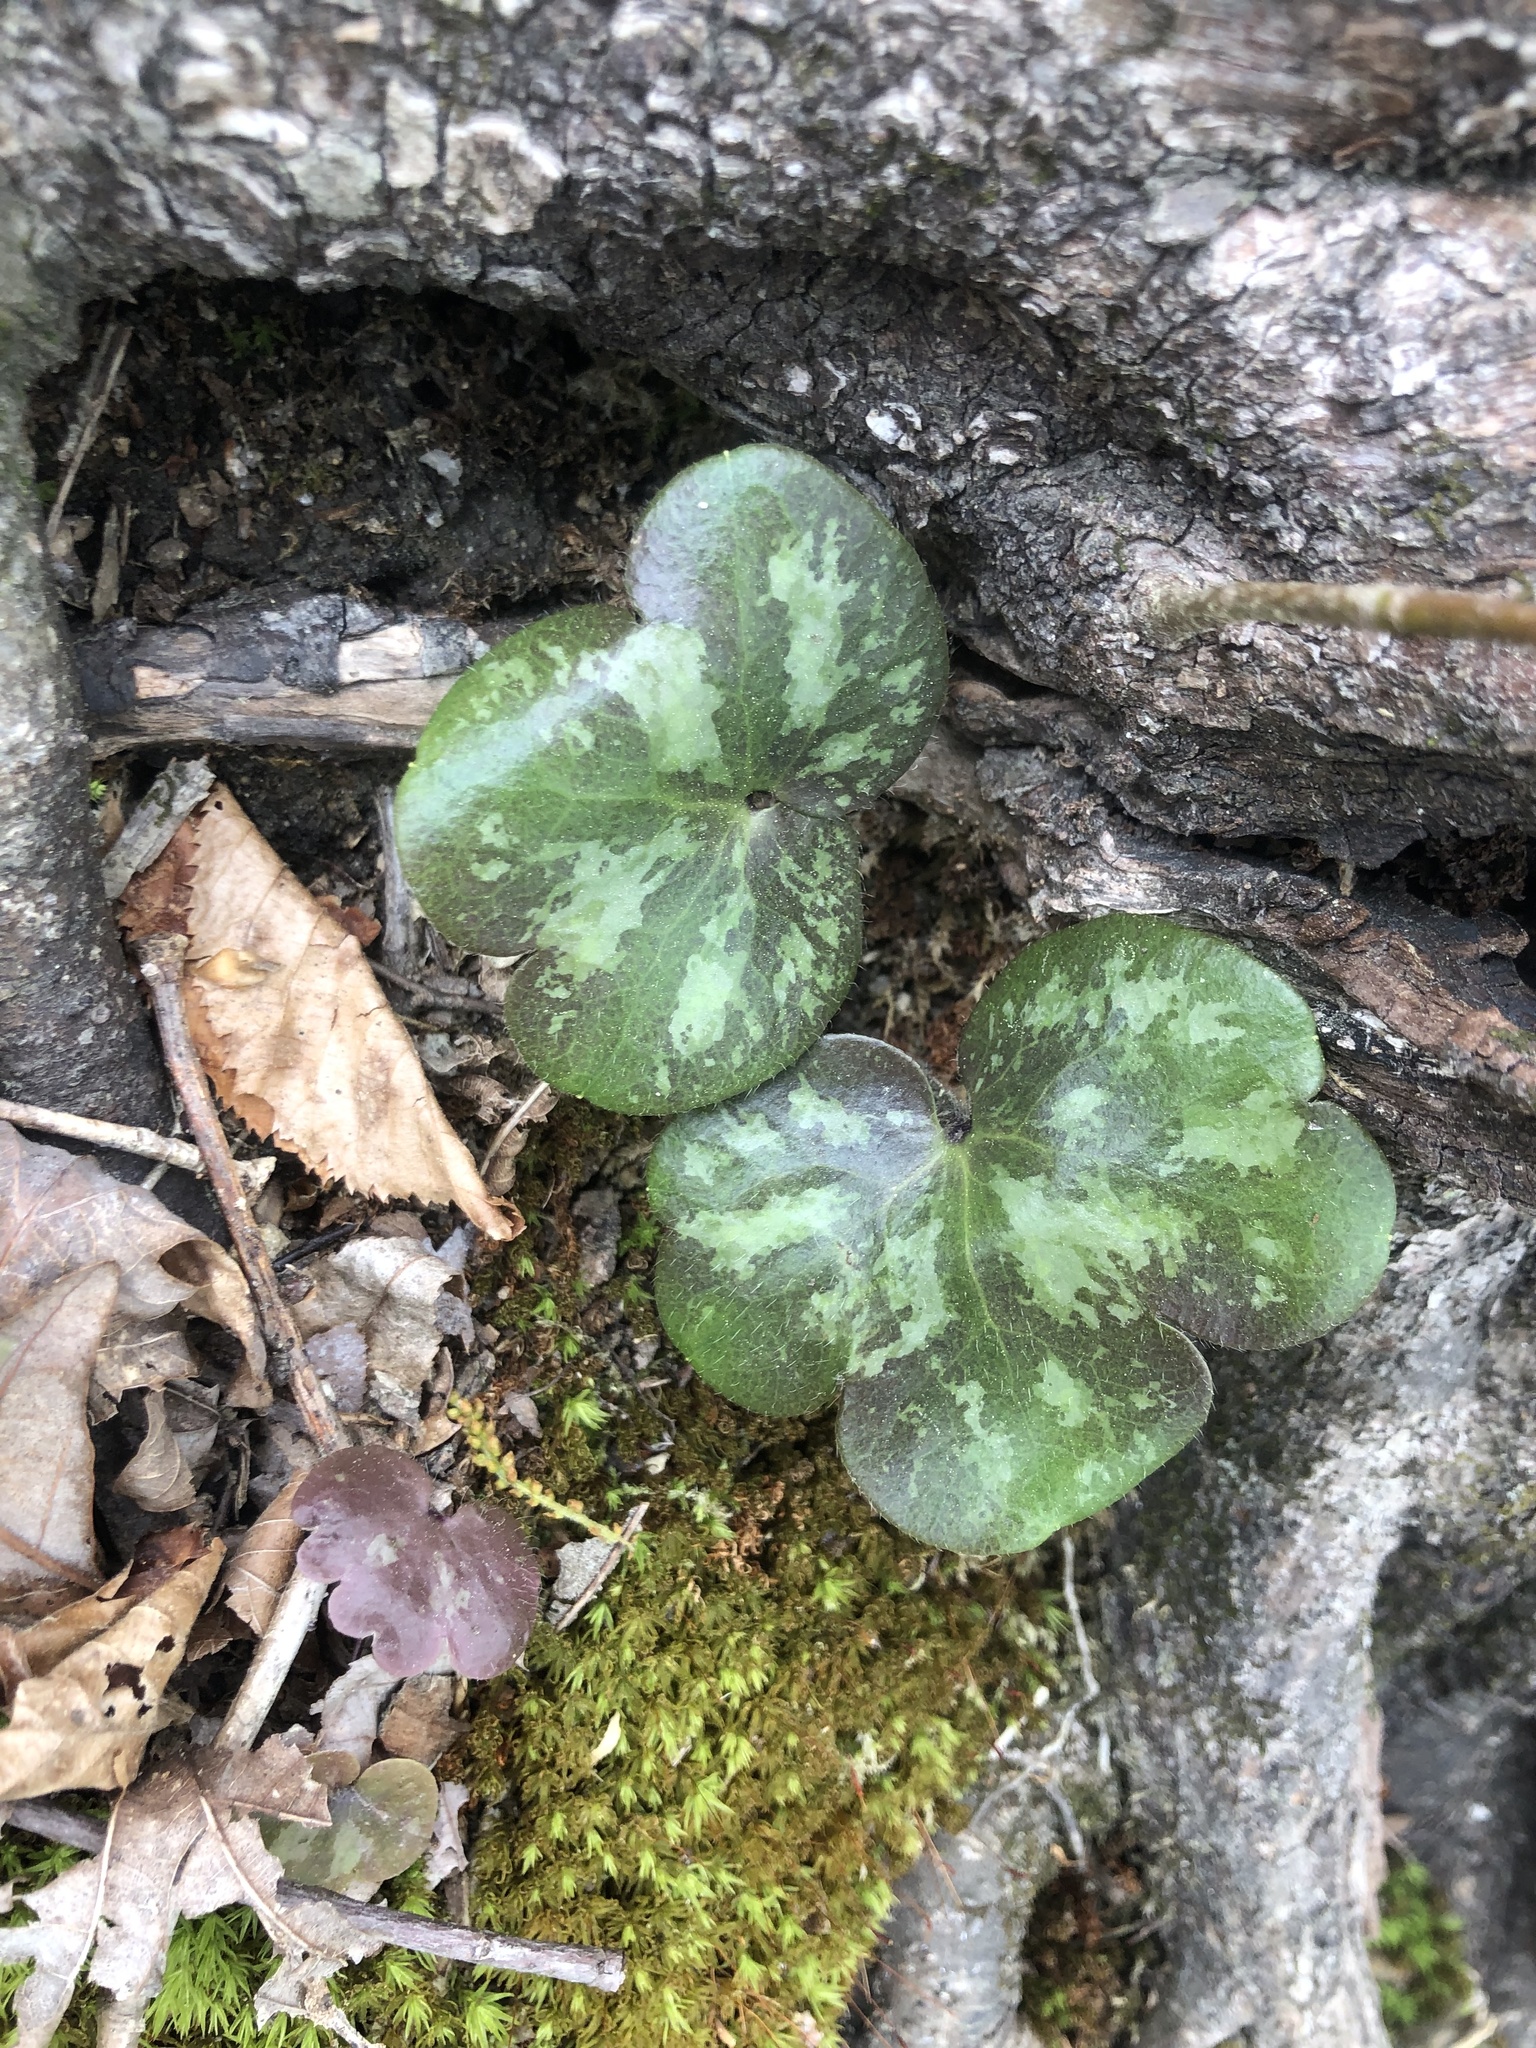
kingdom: Plantae
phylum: Tracheophyta
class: Magnoliopsida
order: Ranunculales
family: Ranunculaceae
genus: Hepatica
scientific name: Hepatica americana
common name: American hepatica
